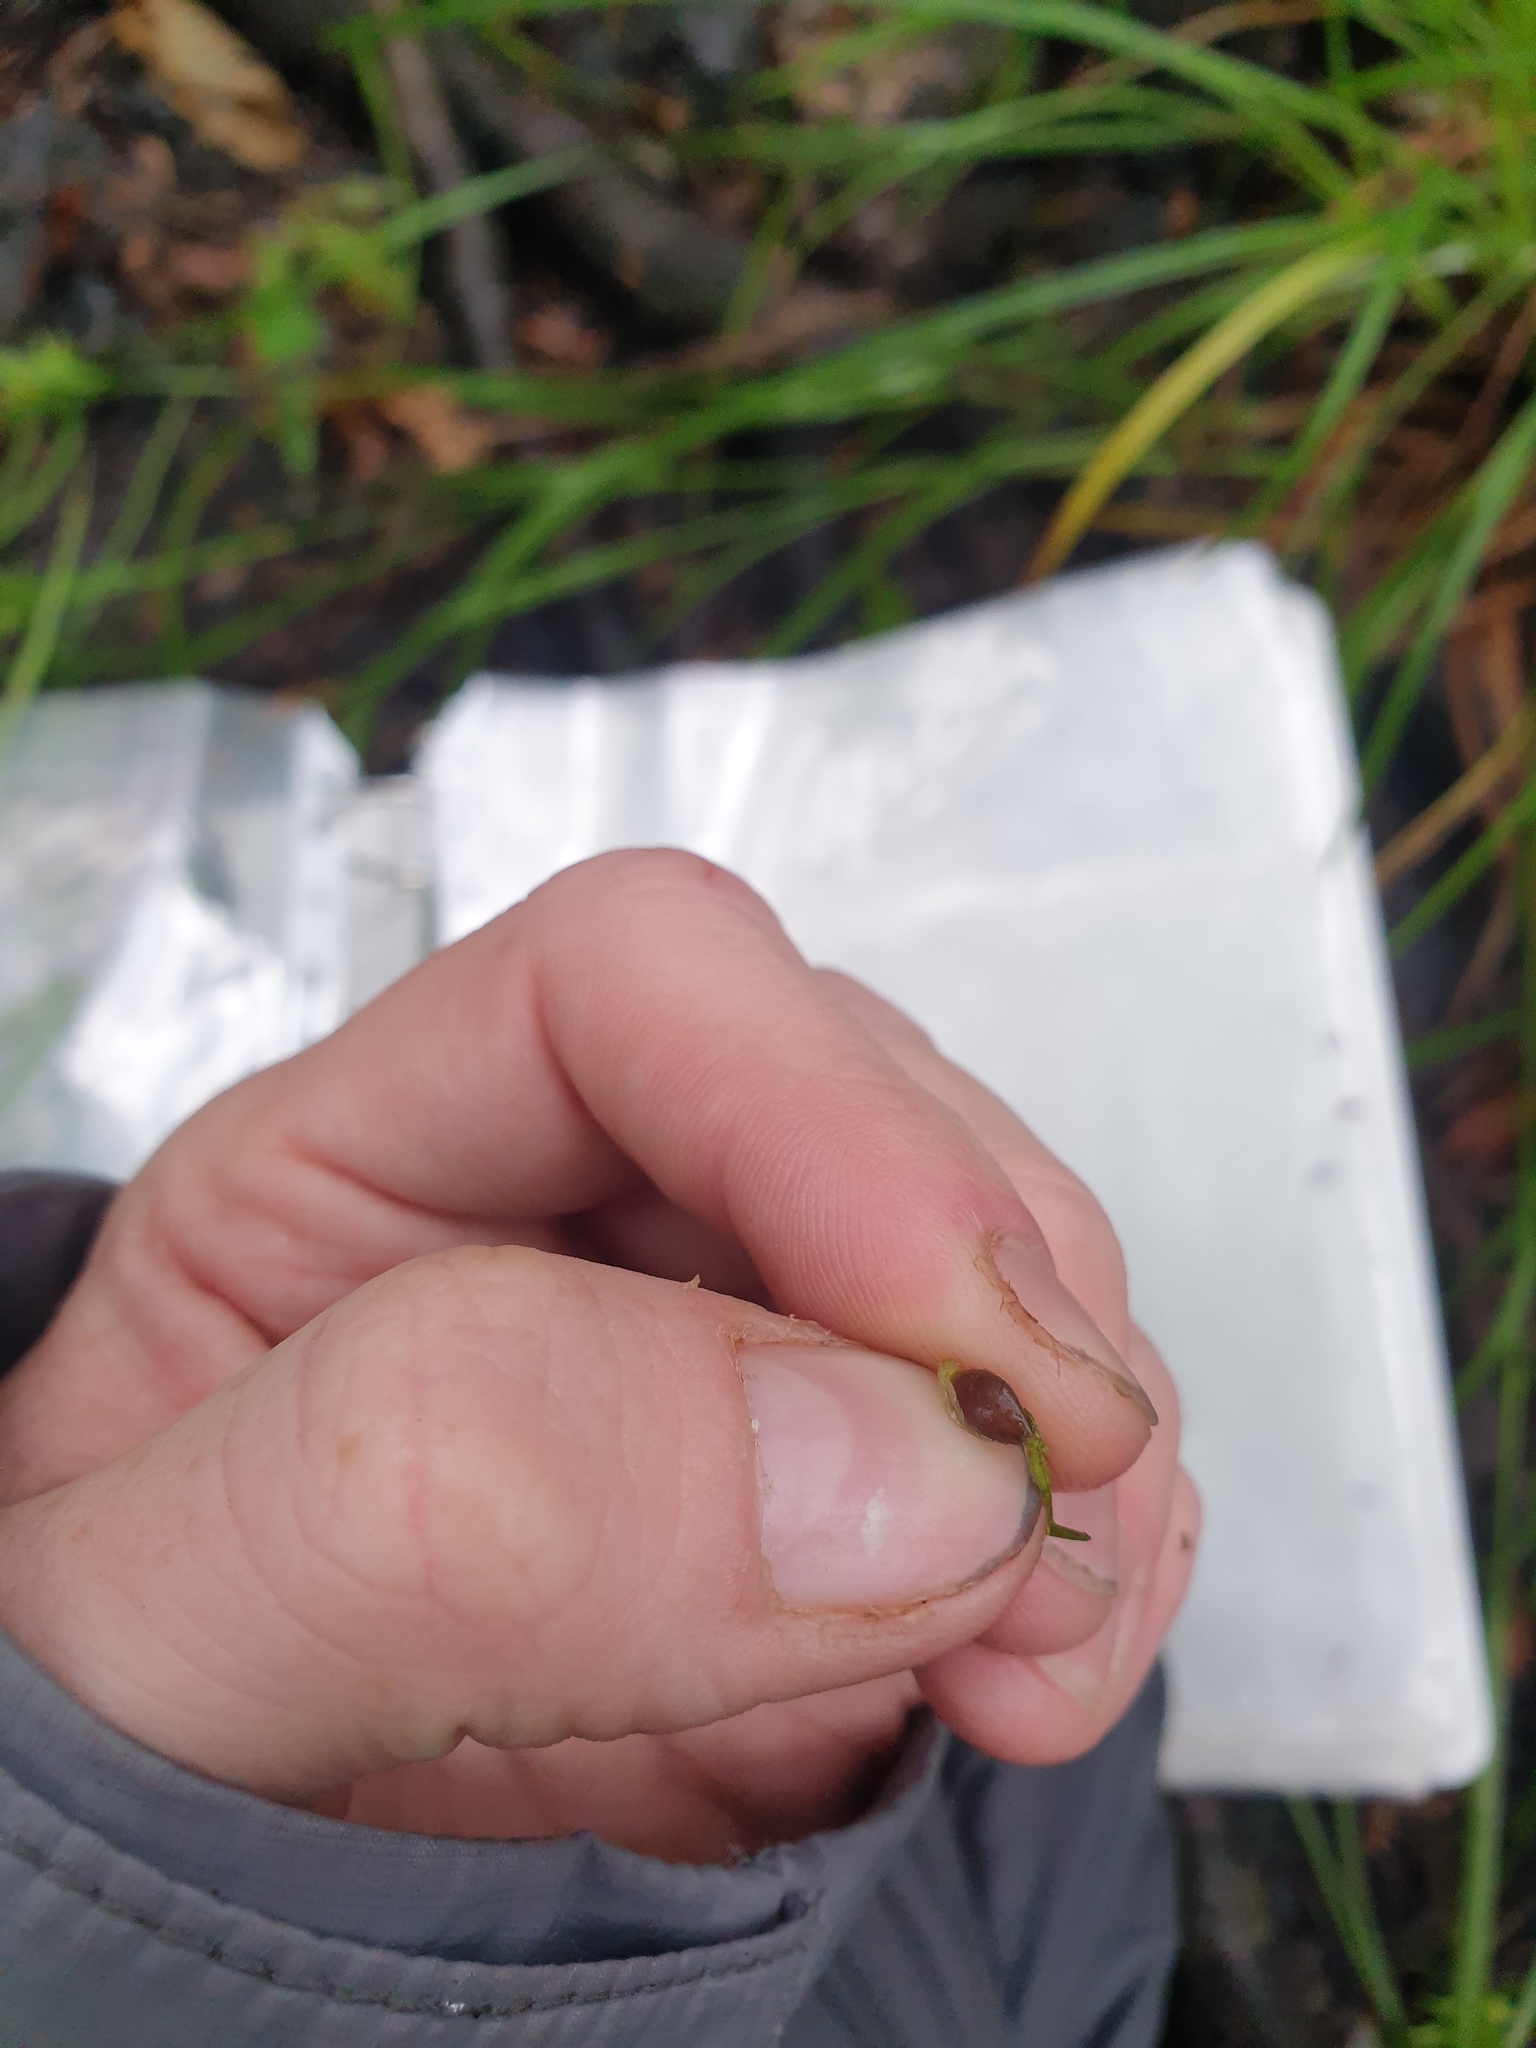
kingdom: Plantae
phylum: Tracheophyta
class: Liliopsida
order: Poales
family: Cyperaceae
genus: Carex
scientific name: Carex intumescens
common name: Greater bladder sedge
